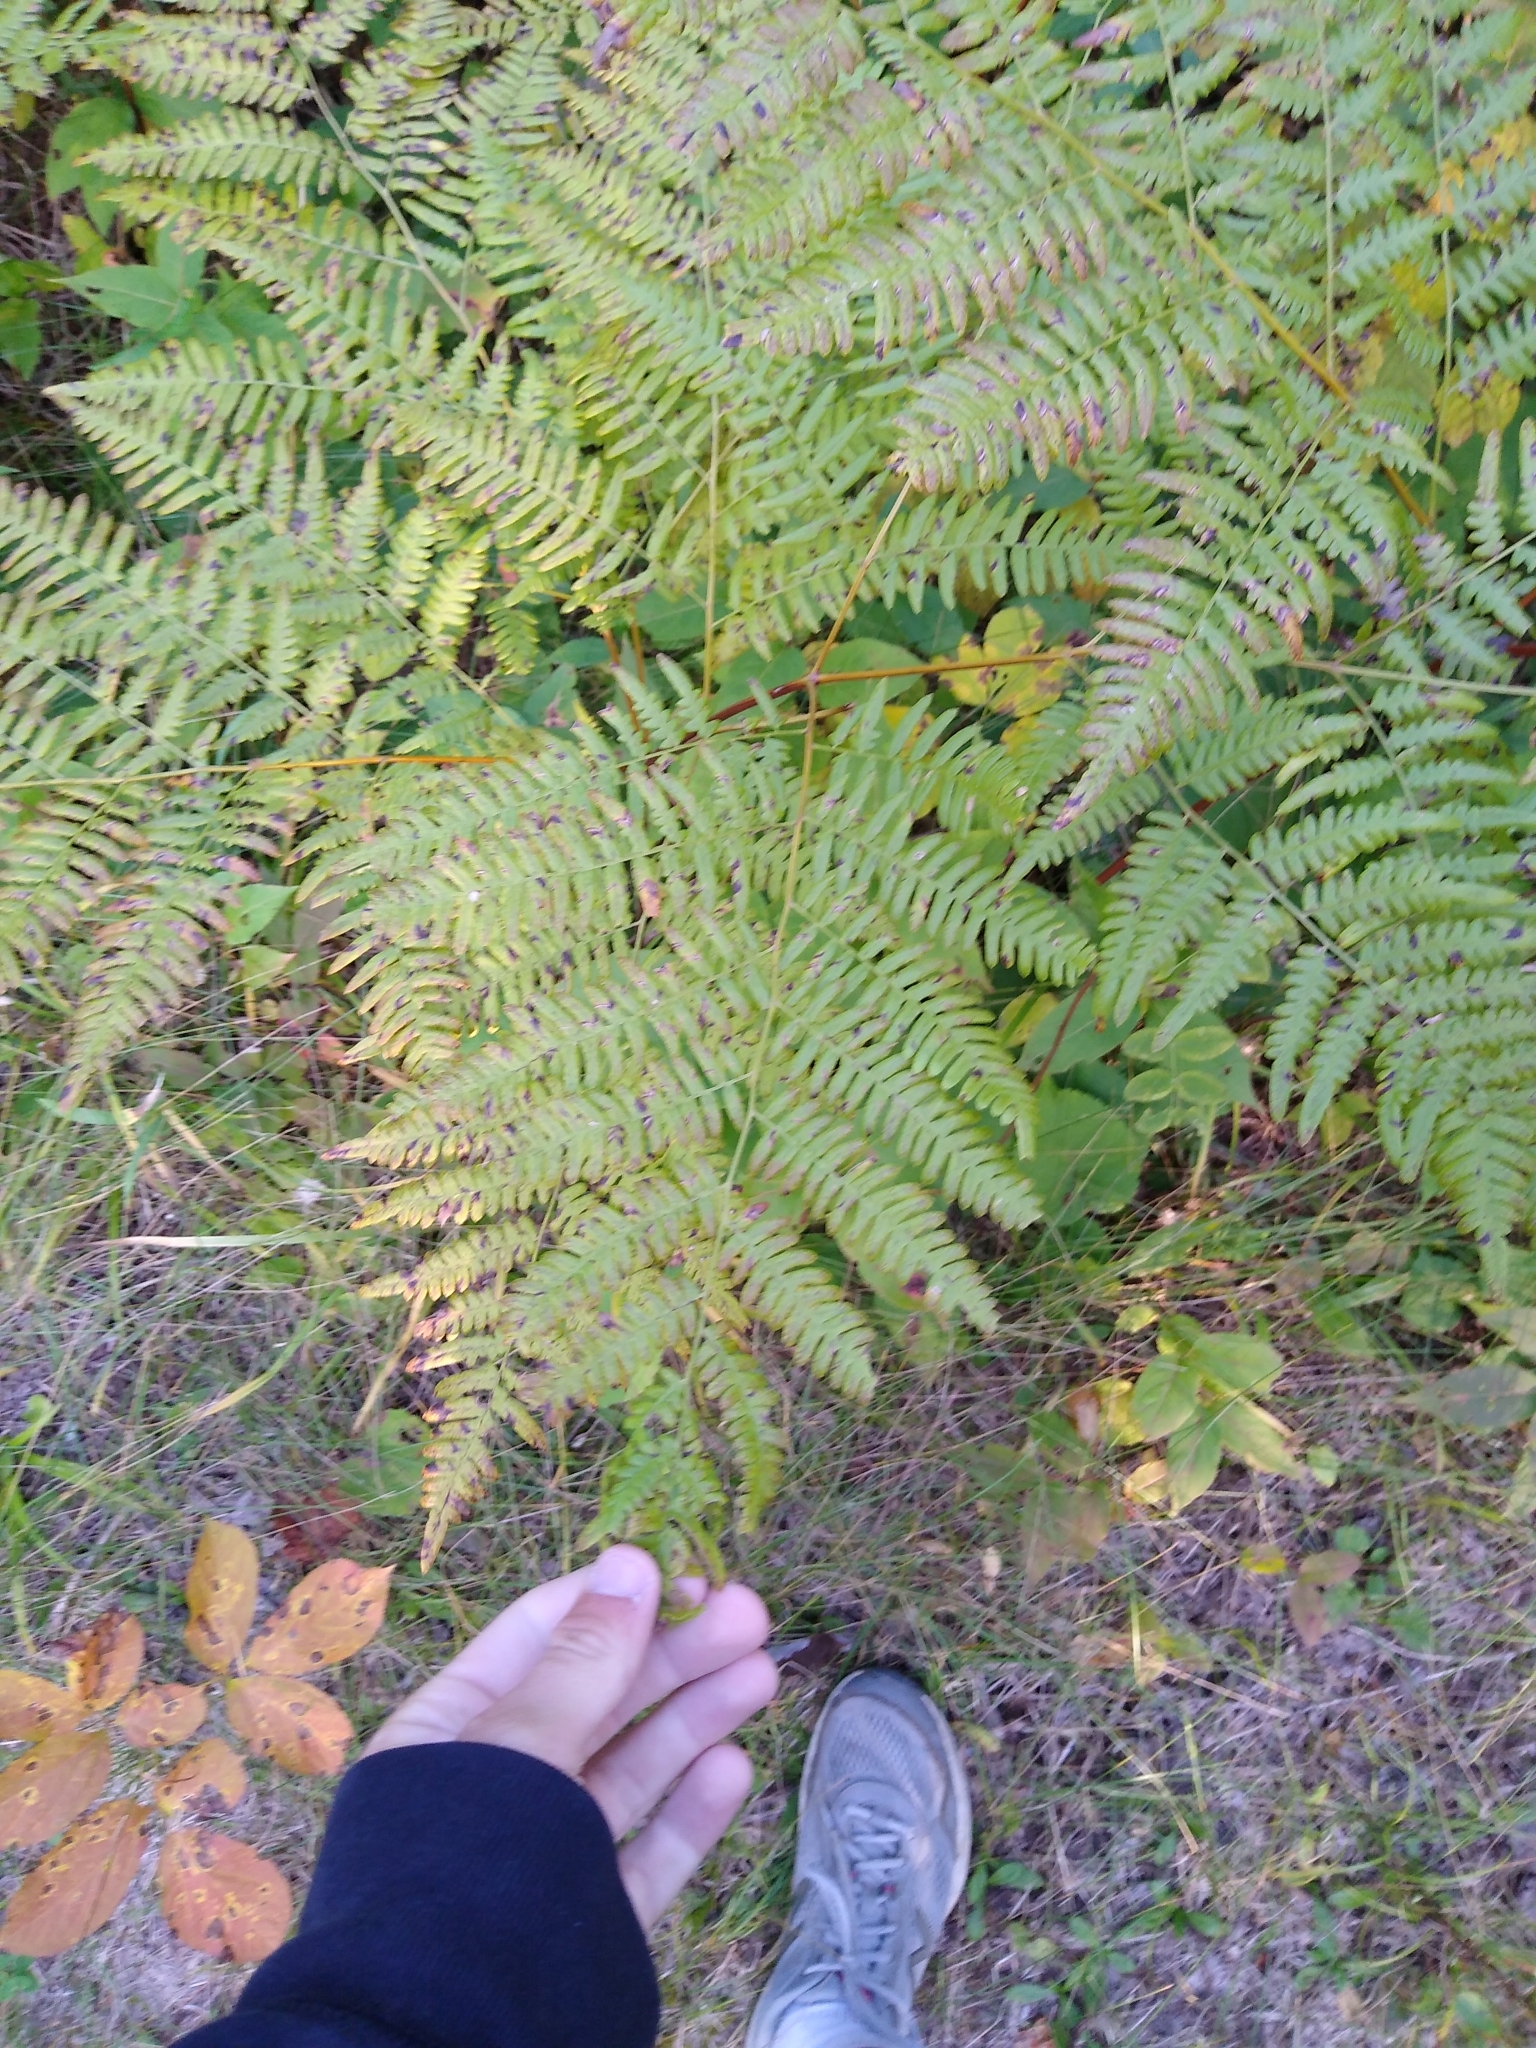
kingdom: Plantae
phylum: Tracheophyta
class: Polypodiopsida
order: Polypodiales
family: Dennstaedtiaceae
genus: Pteridium
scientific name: Pteridium aquilinum
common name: Bracken
